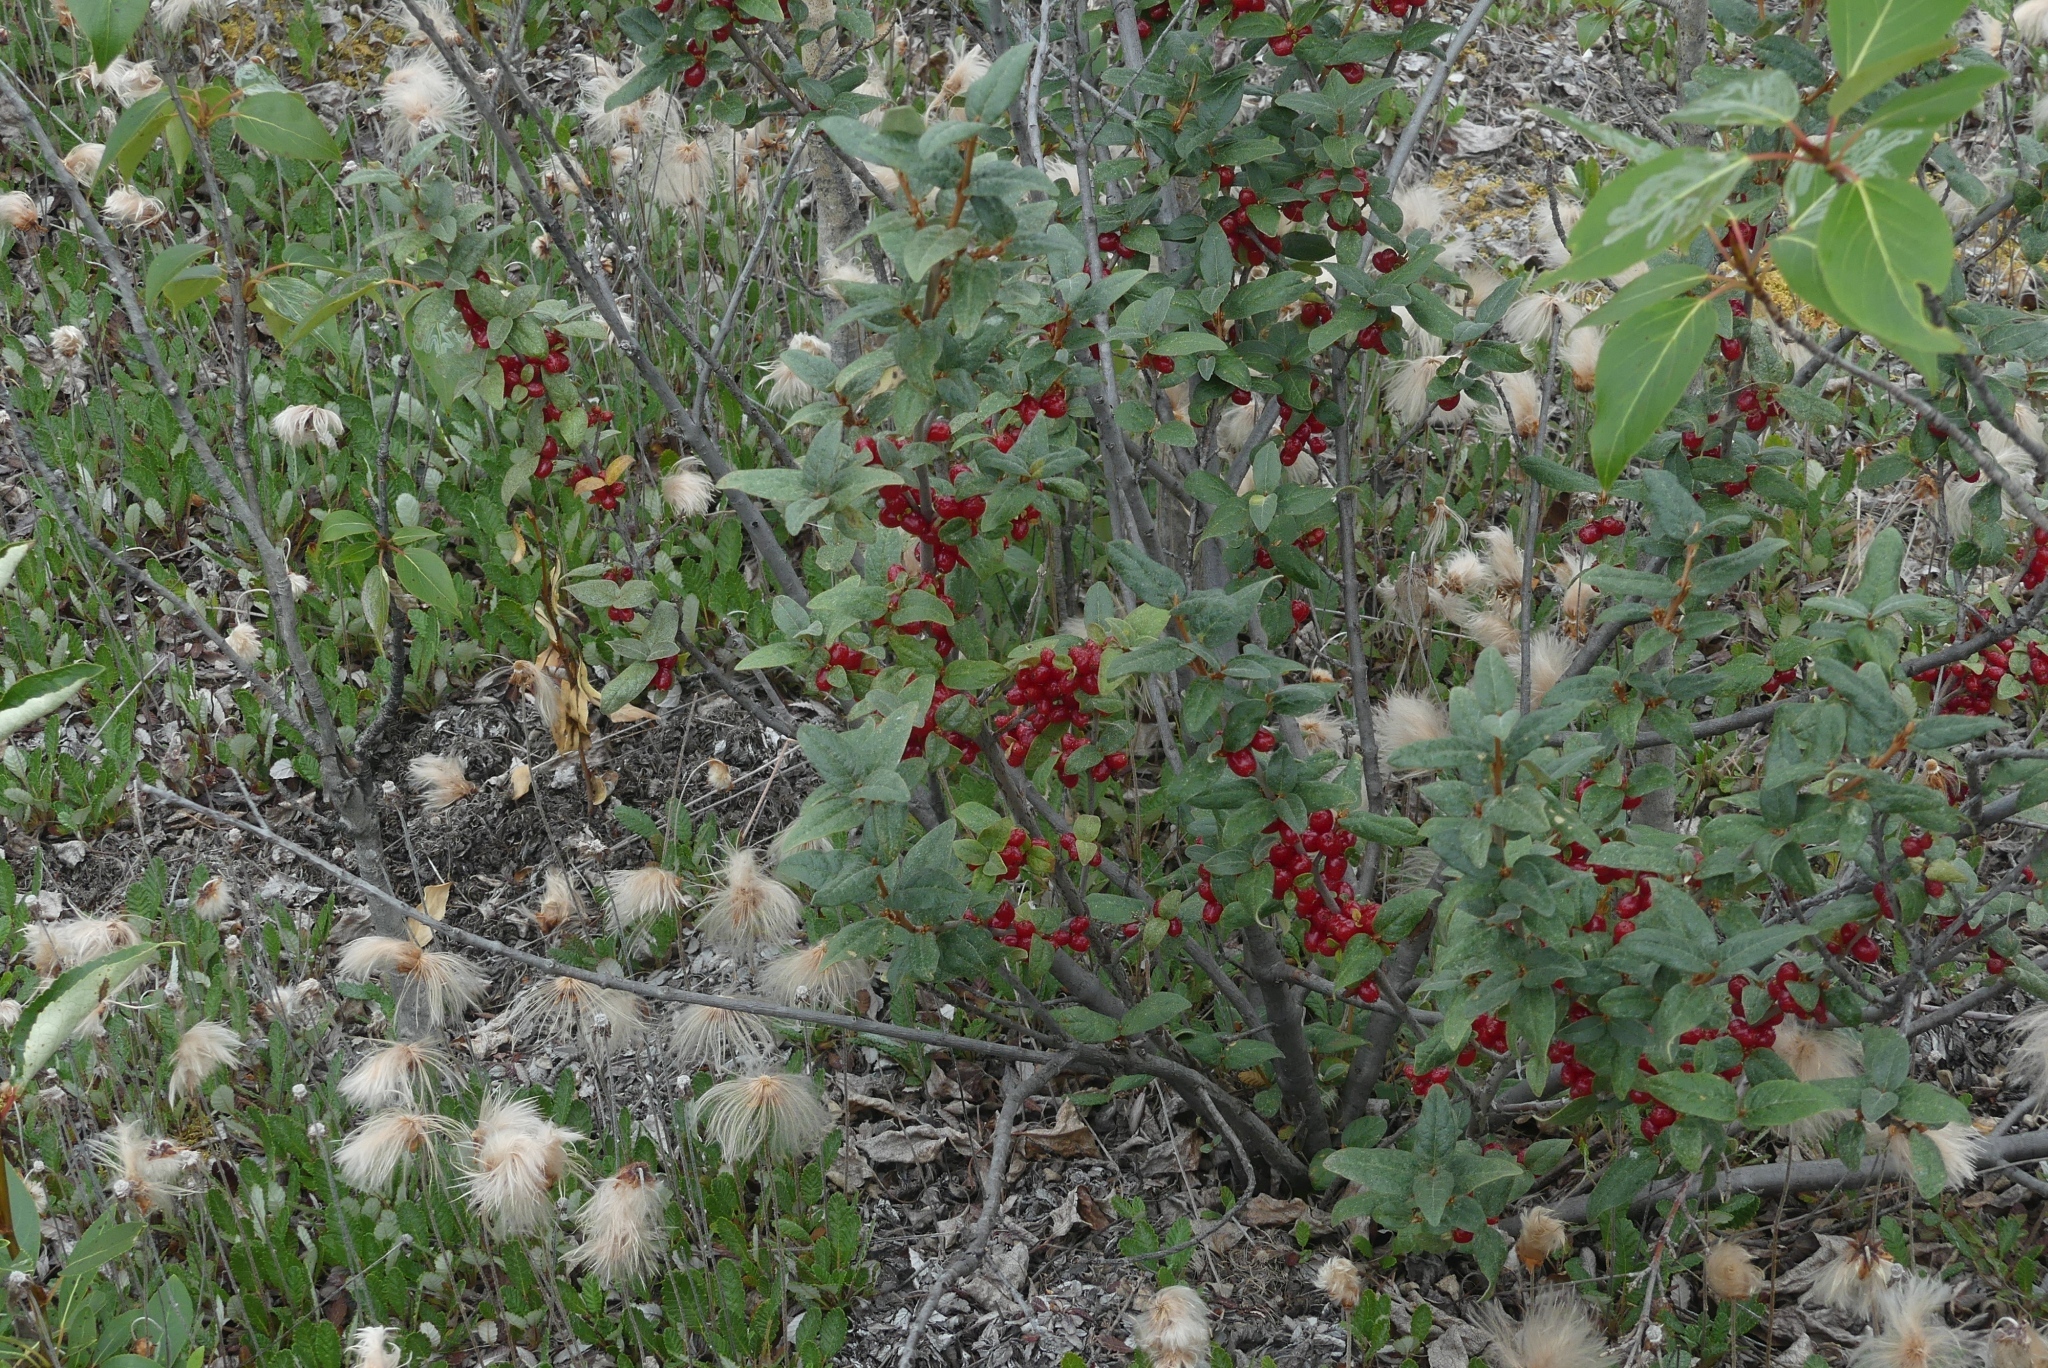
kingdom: Plantae
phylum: Tracheophyta
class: Magnoliopsida
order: Rosales
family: Elaeagnaceae
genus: Shepherdia
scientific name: Shepherdia canadensis
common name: Soapberry
